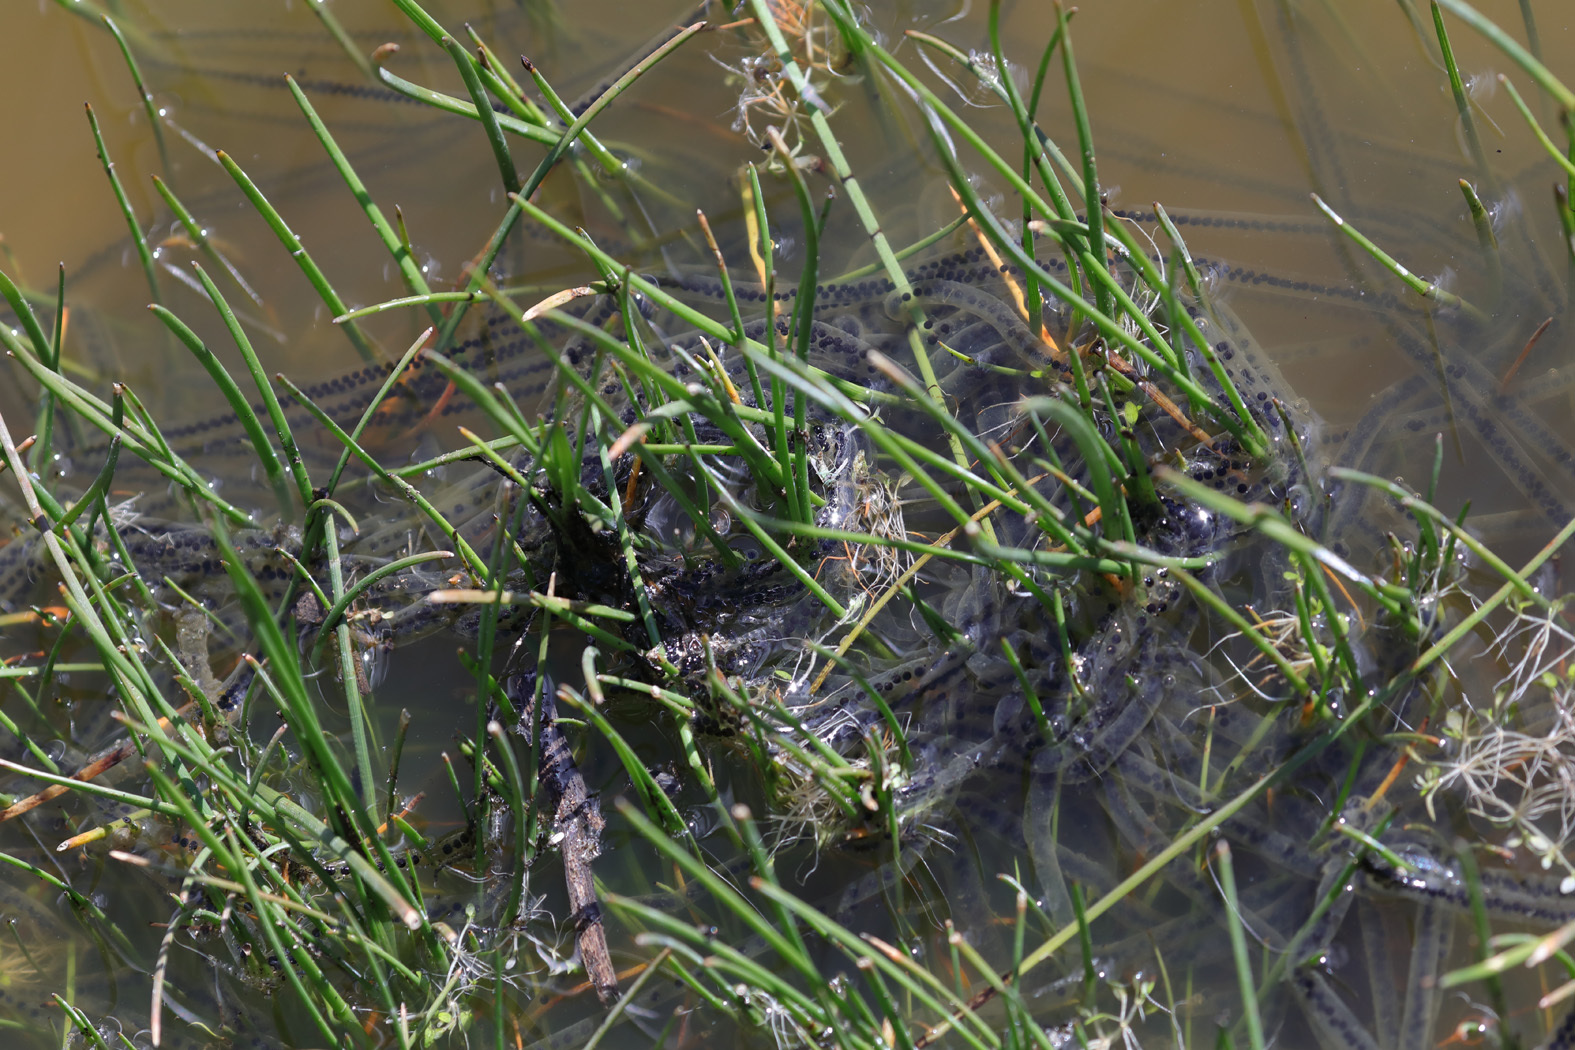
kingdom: Animalia
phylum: Chordata
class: Amphibia
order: Anura
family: Bufonidae
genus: Anaxyrus
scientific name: Anaxyrus boreas
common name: Western toad
